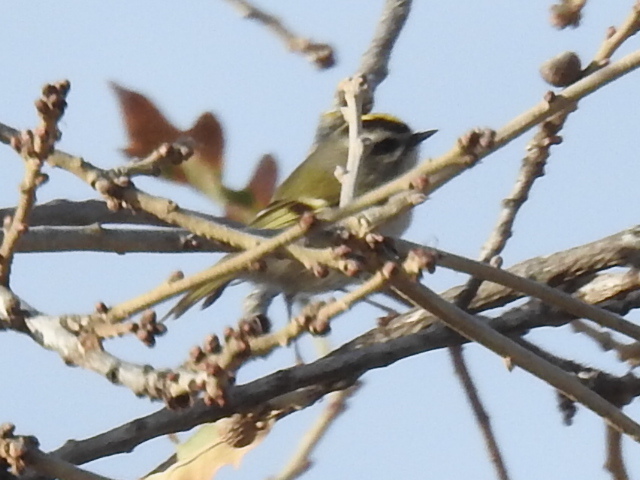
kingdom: Animalia
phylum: Chordata
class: Aves
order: Passeriformes
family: Regulidae
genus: Regulus
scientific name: Regulus satrapa
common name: Golden-crowned kinglet
